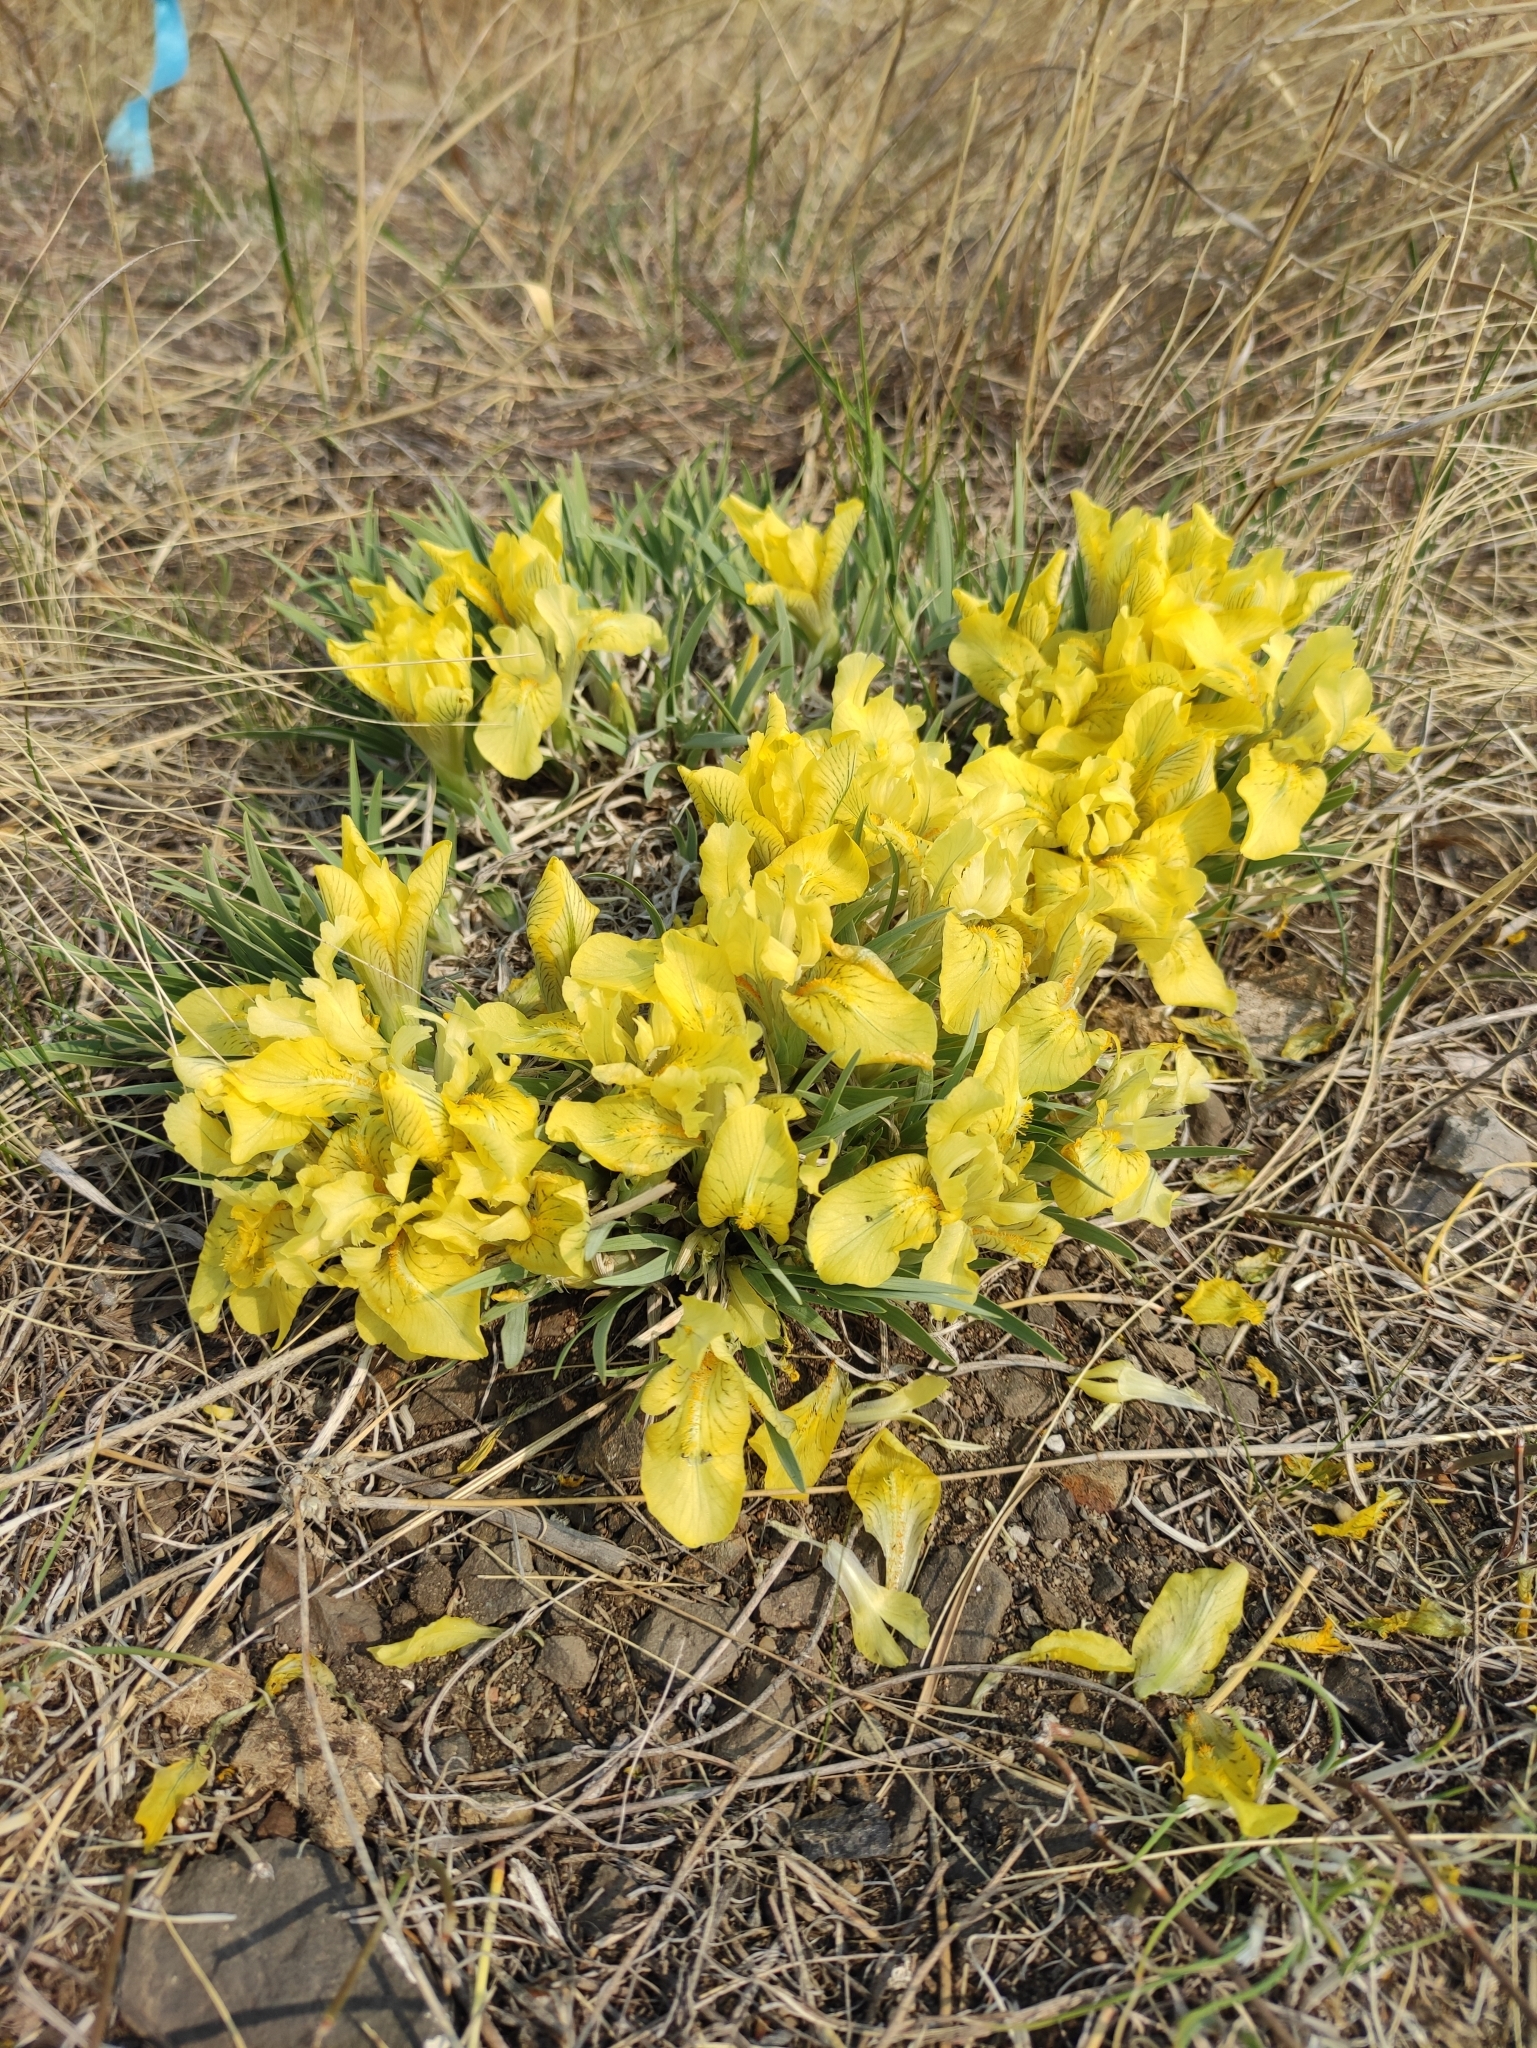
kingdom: Plantae
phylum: Tracheophyta
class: Liliopsida
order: Asparagales
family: Iridaceae
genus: Iris
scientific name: Iris potaninii
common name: Curl-sheath iris
